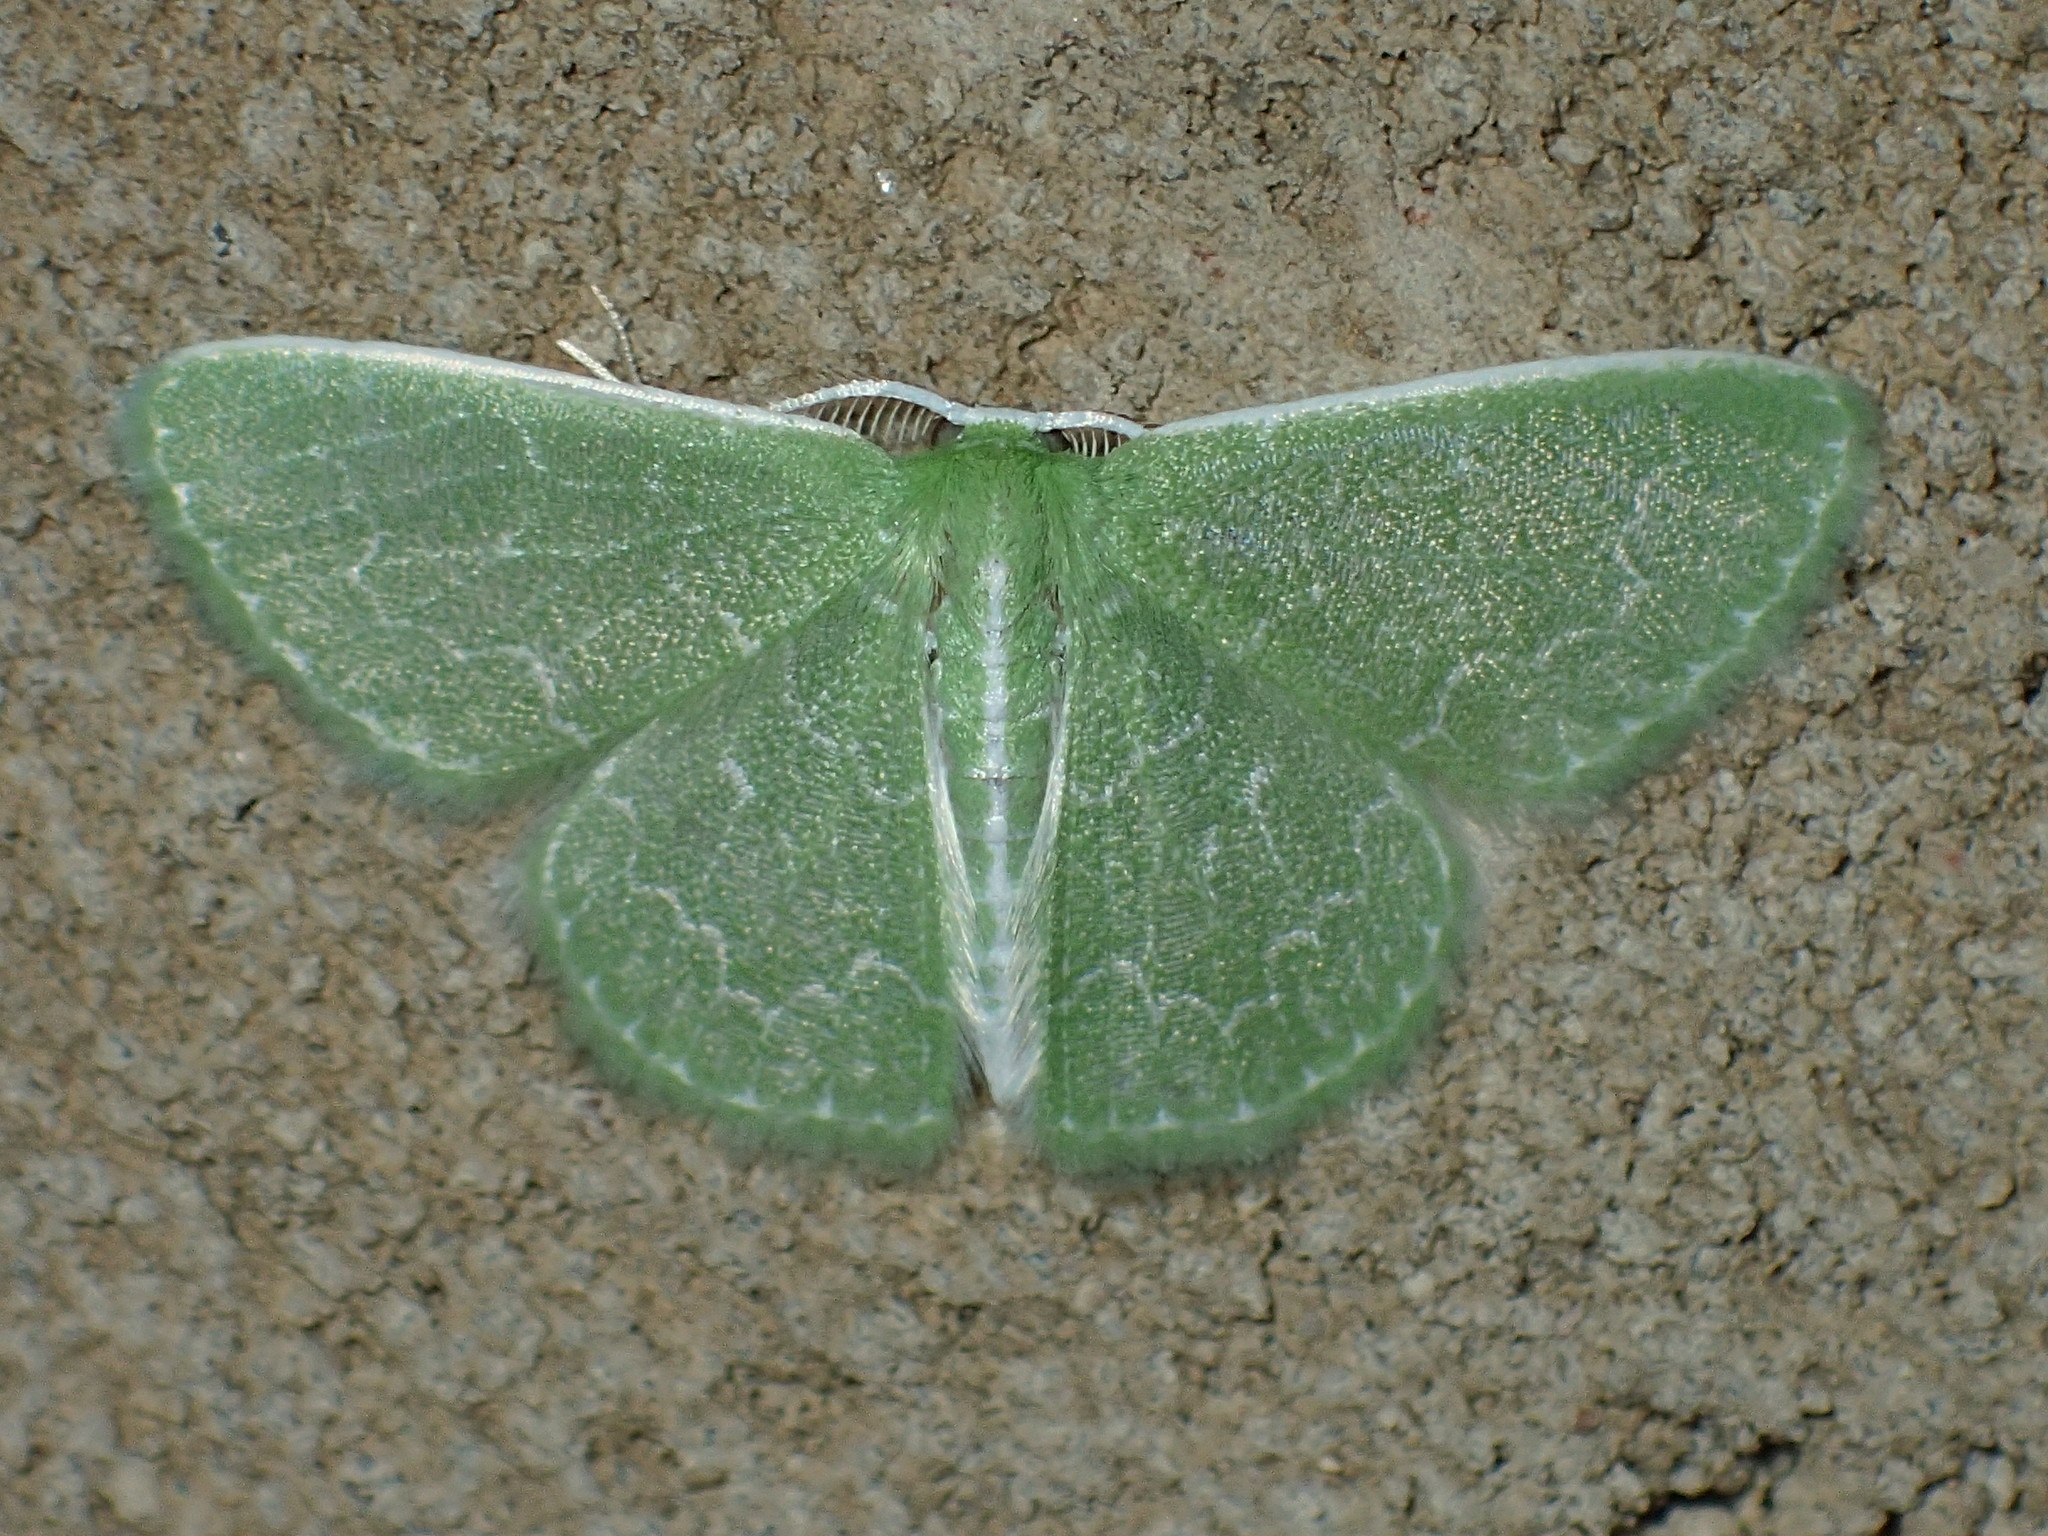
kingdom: Animalia
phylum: Arthropoda
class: Insecta
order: Lepidoptera
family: Geometridae
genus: Synchlora
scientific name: Synchlora frondaria
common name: Southern emerald
